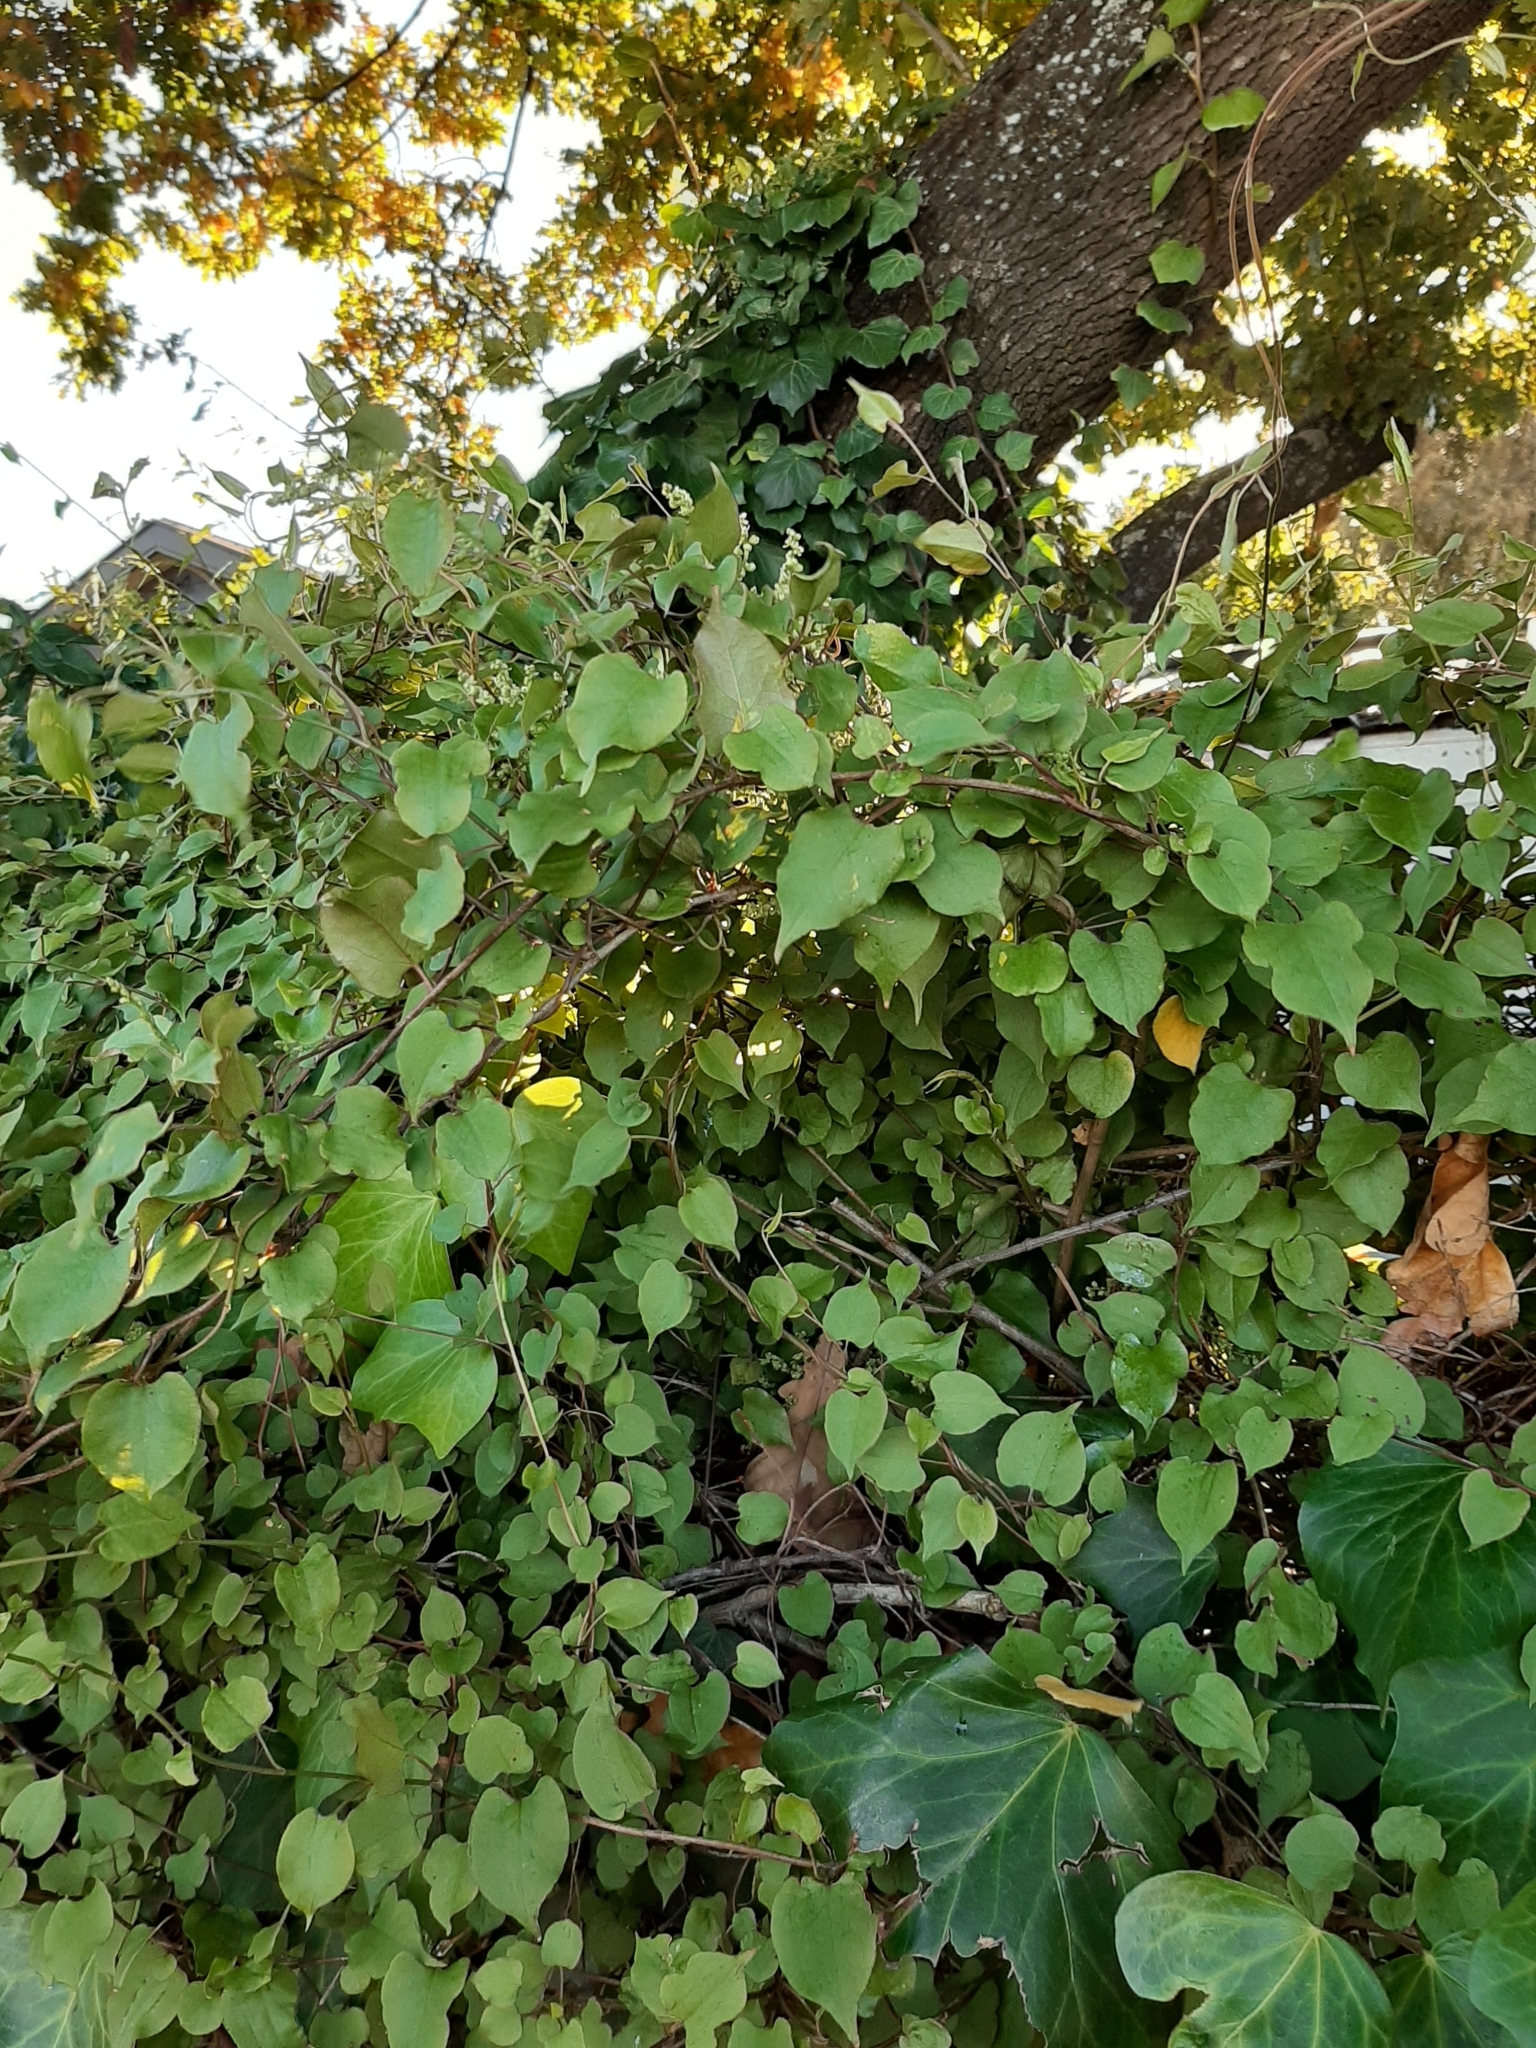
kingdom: Plantae
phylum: Tracheophyta
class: Magnoliopsida
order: Caryophyllales
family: Polygonaceae
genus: Muehlenbeckia
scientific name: Muehlenbeckia australis
